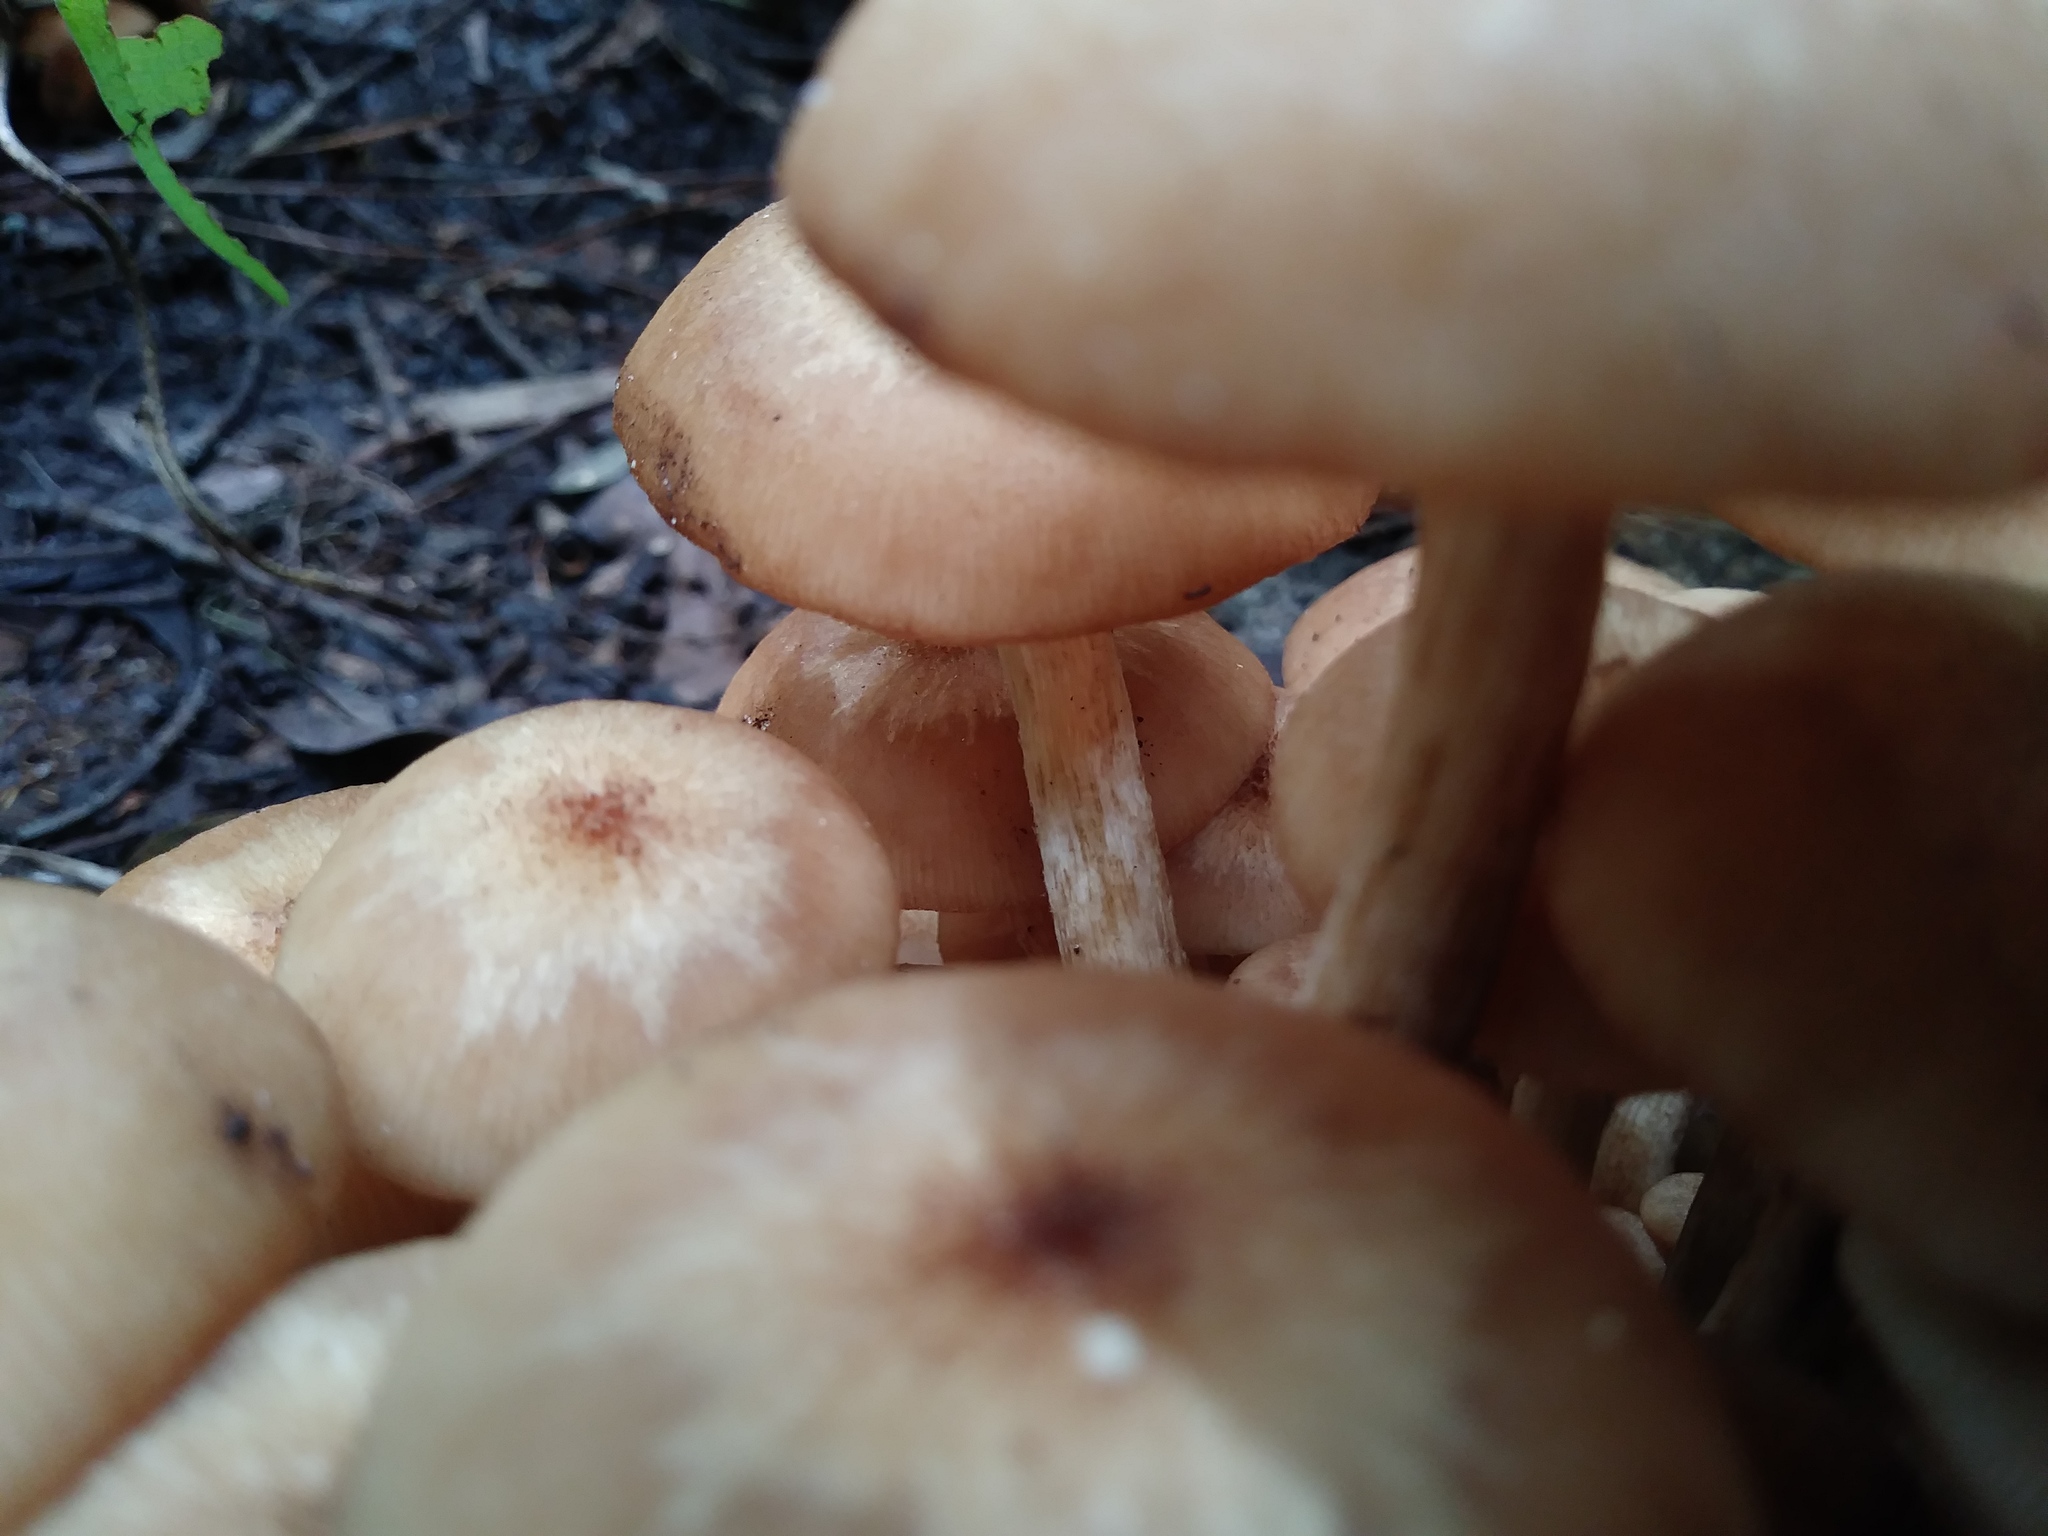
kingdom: Fungi
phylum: Basidiomycota
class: Agaricomycetes
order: Agaricales
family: Physalacriaceae
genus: Desarmillaria
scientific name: Desarmillaria caespitosa
